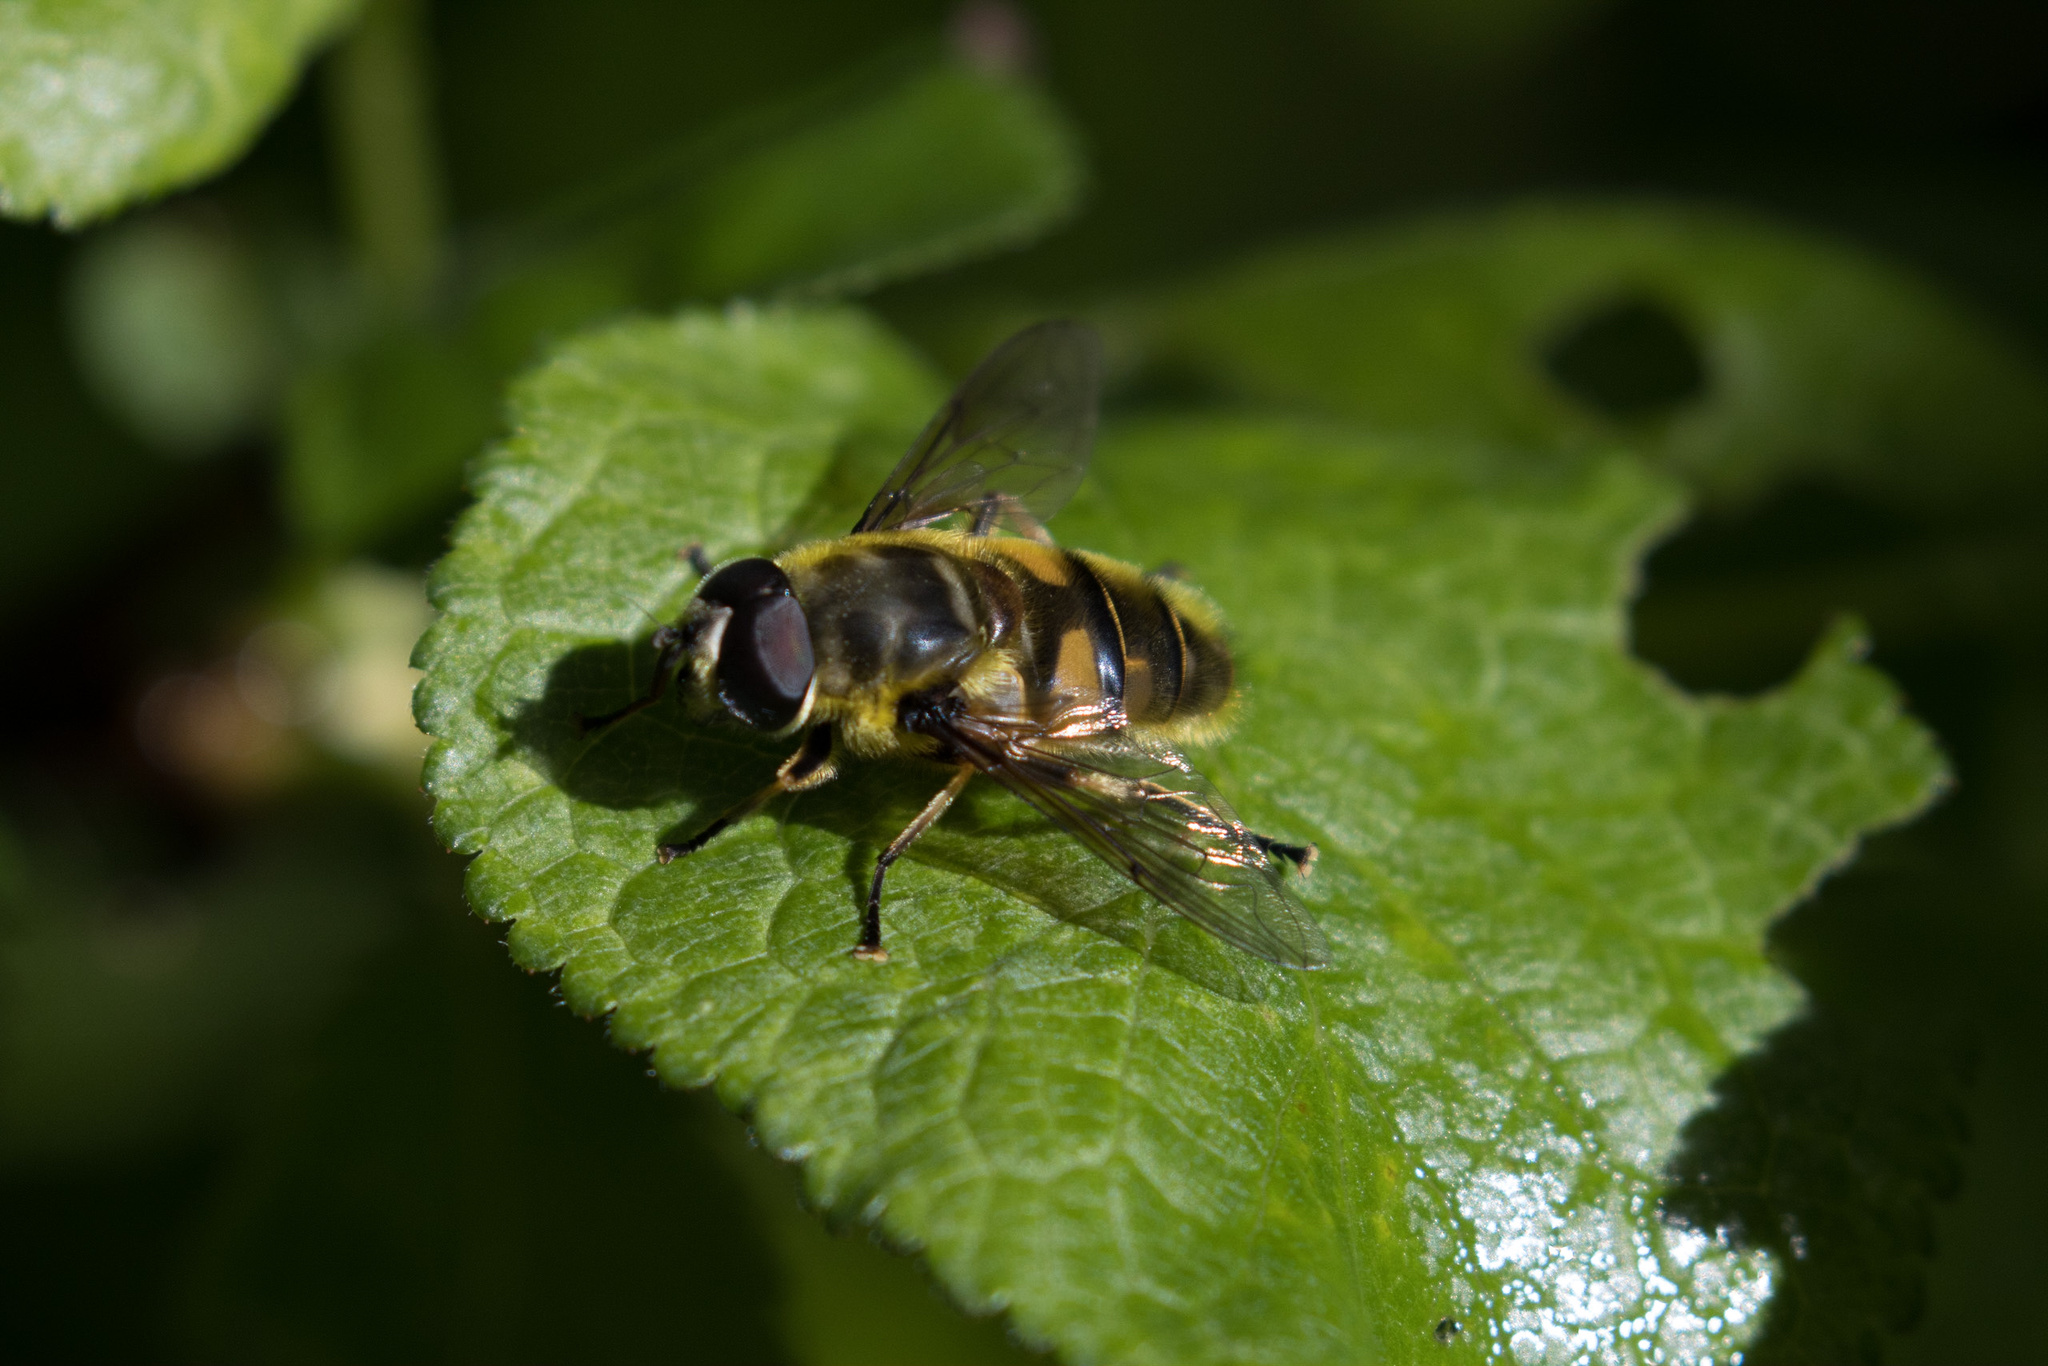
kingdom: Animalia
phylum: Arthropoda
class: Insecta
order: Diptera
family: Syrphidae
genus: Myathropa
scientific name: Myathropa florea
